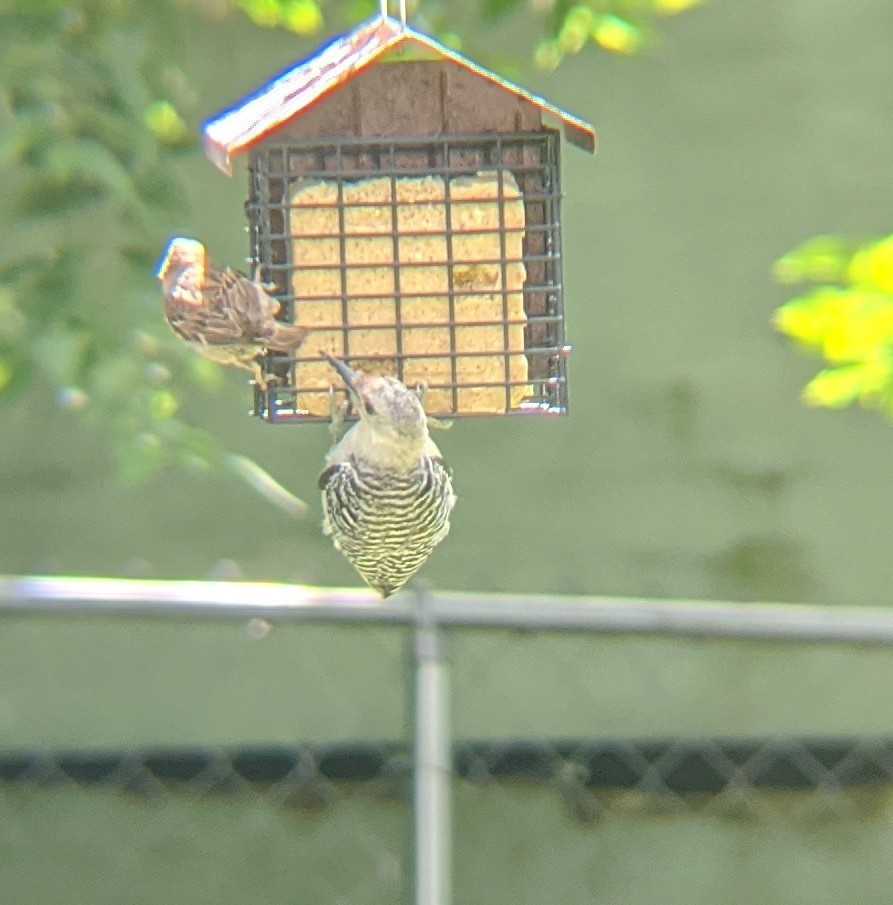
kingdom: Animalia
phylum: Chordata
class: Aves
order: Piciformes
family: Picidae
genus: Melanerpes
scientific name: Melanerpes carolinus
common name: Red-bellied woodpecker
